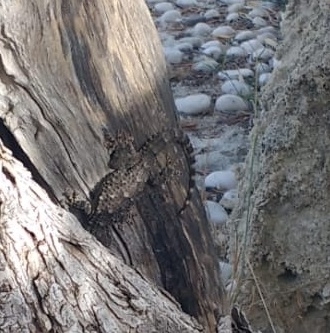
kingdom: Animalia
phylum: Chordata
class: Squamata
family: Phyllodactylidae
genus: Tarentola
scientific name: Tarentola mauritanica
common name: Moorish gecko
